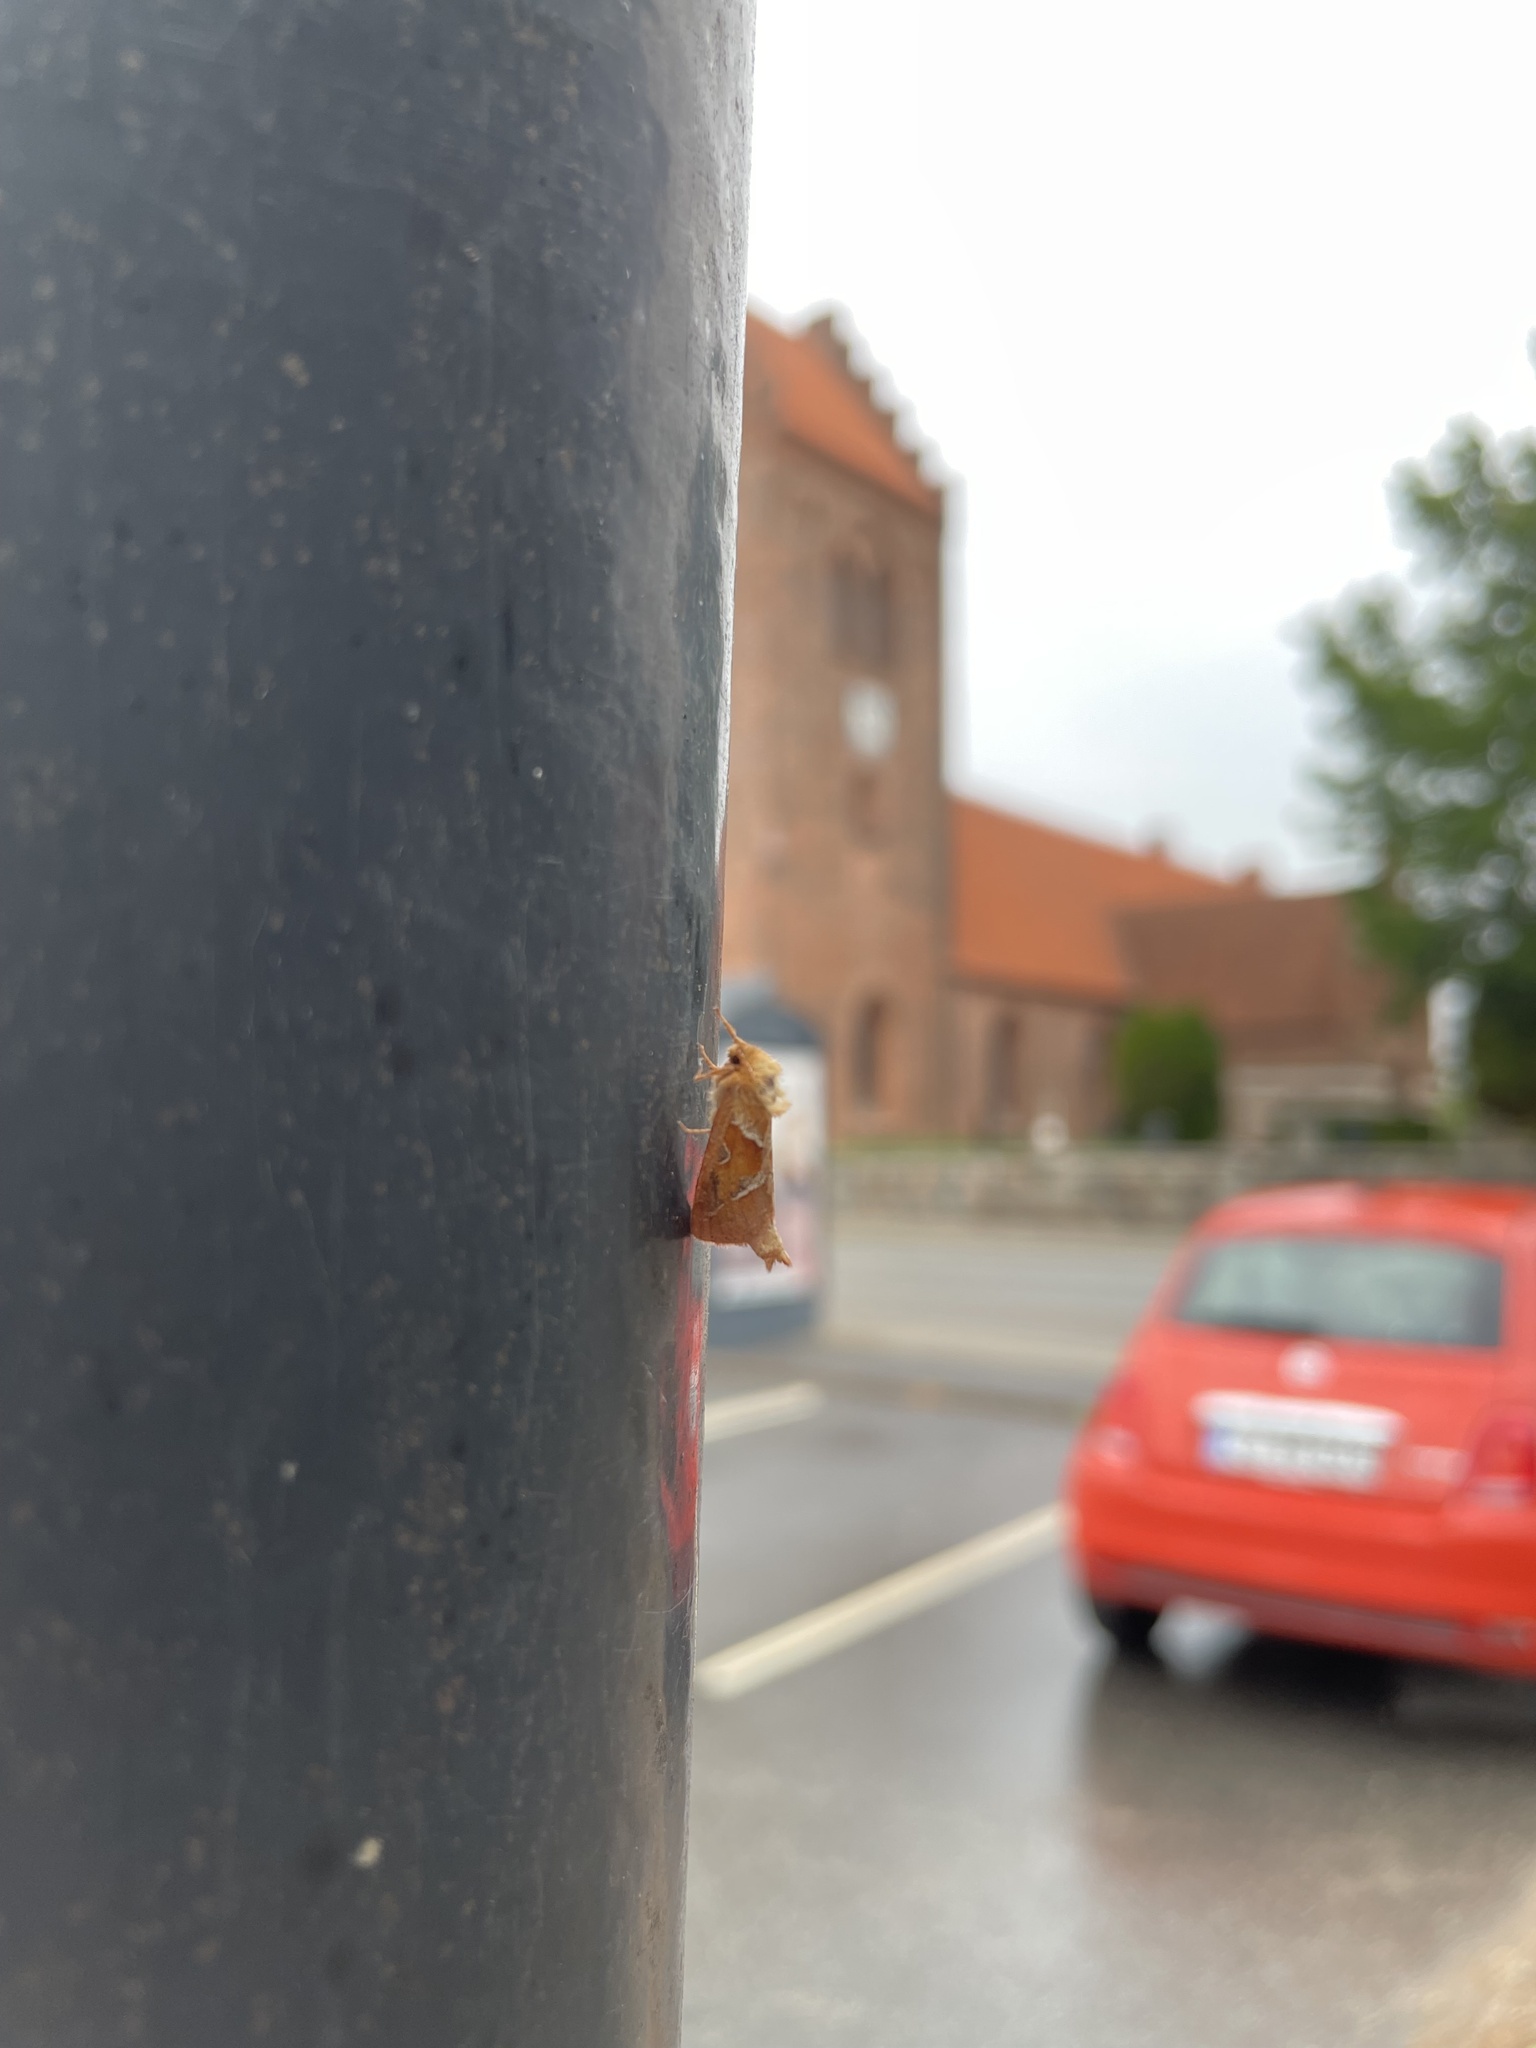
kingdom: Animalia
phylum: Arthropoda
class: Insecta
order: Lepidoptera
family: Hepialidae
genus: Triodia
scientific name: Triodia sylvina
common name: Orange swift
